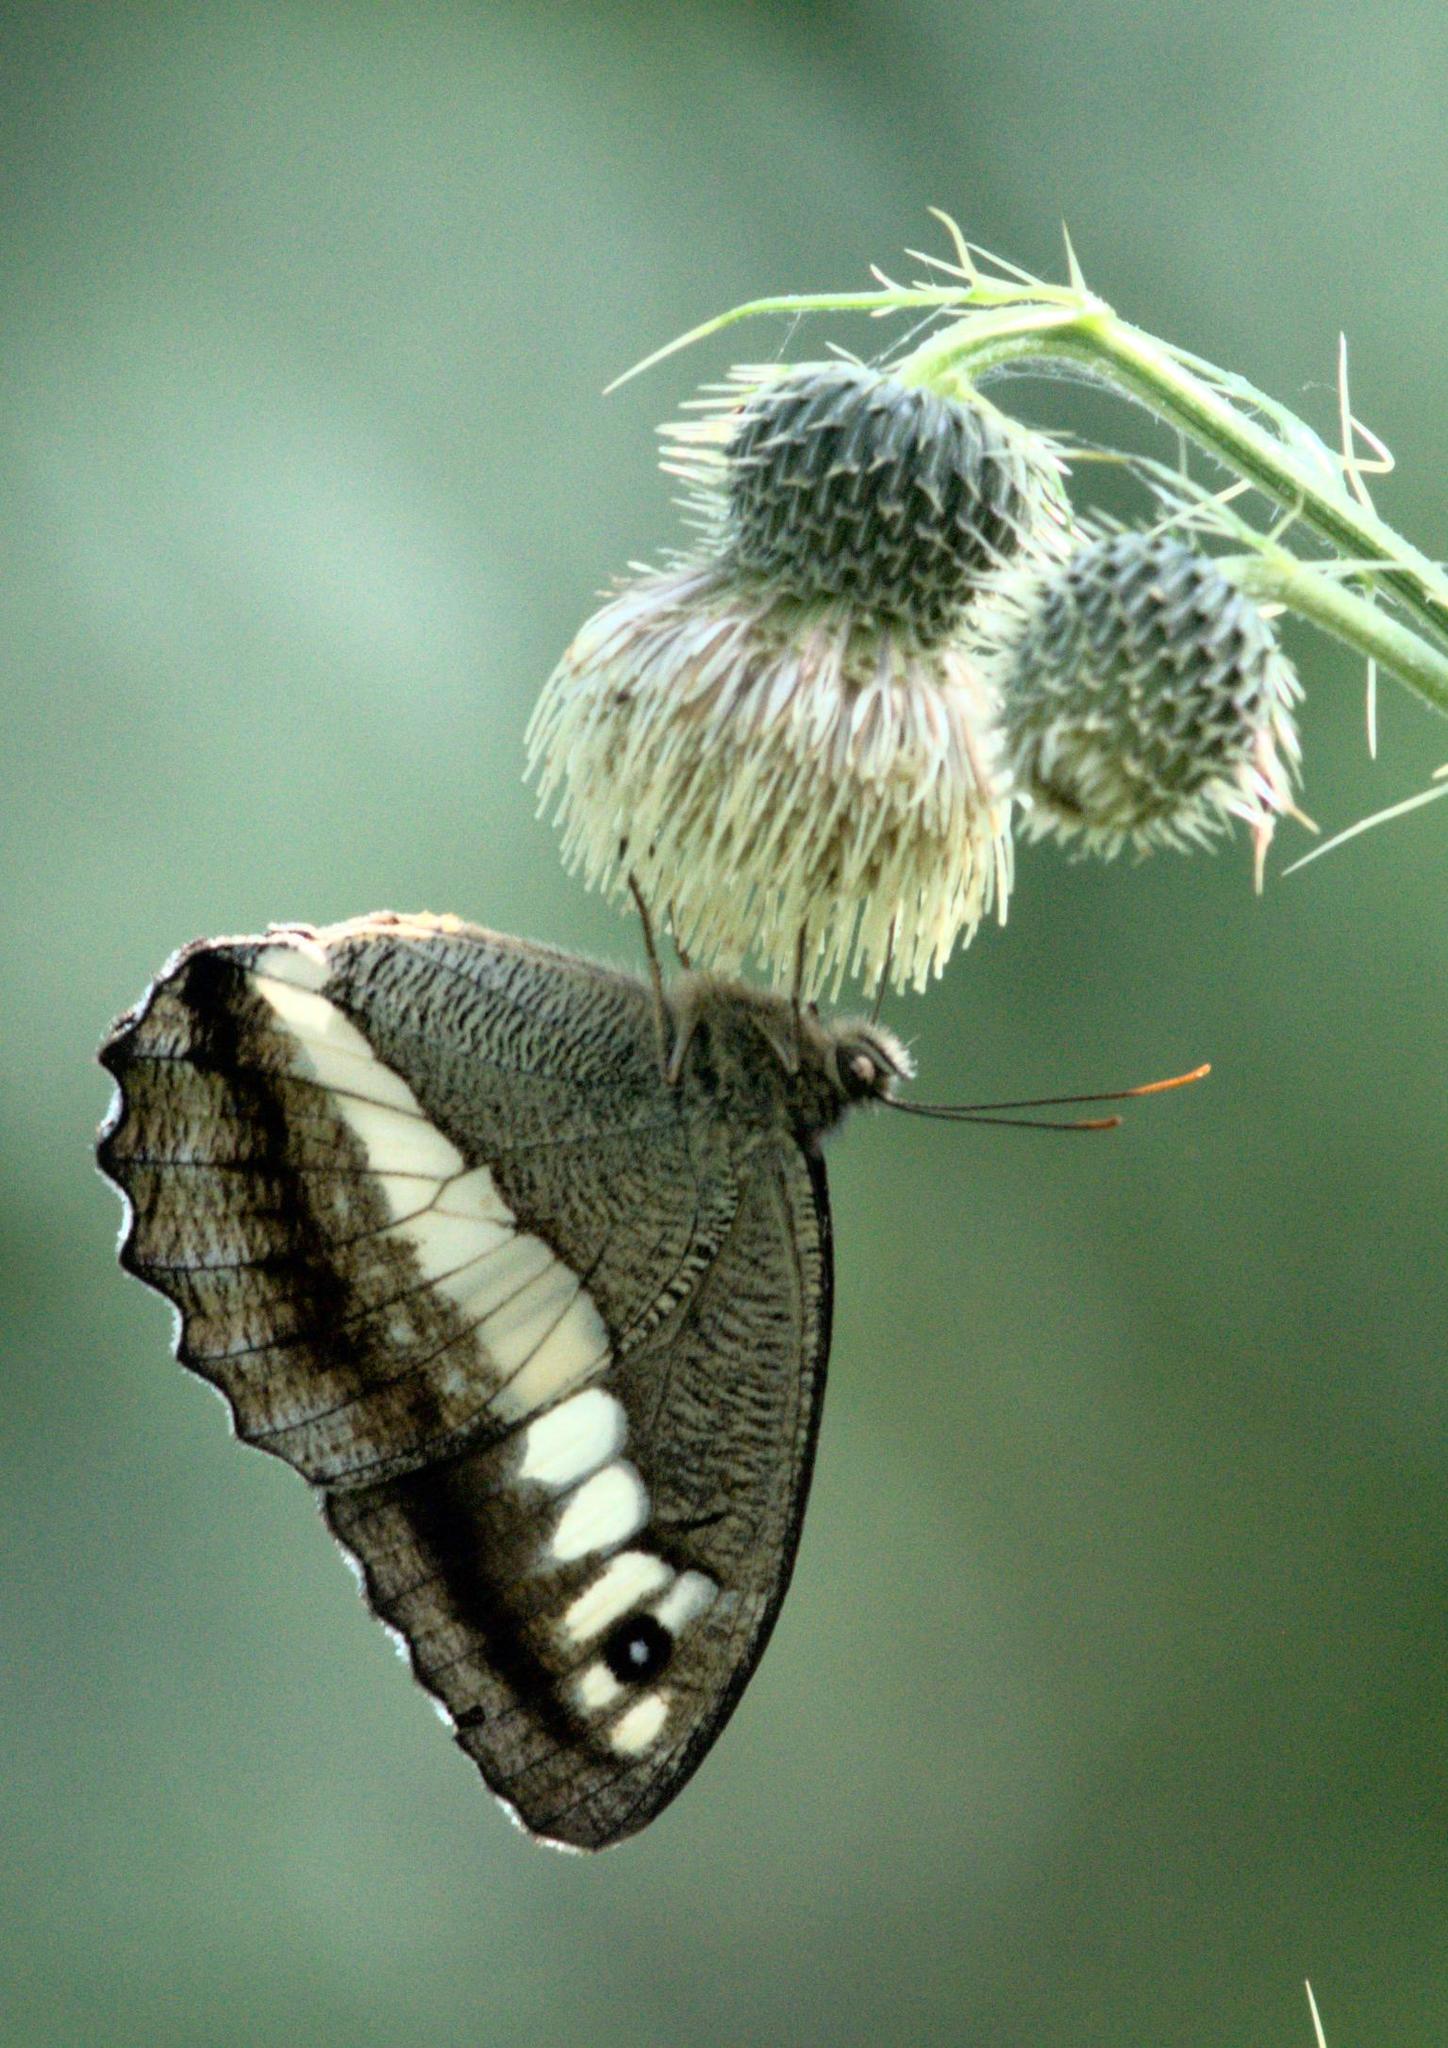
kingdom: Animalia
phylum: Arthropoda
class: Insecta
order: Lepidoptera
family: Nymphalidae
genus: Satyrus
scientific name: Satyrus
